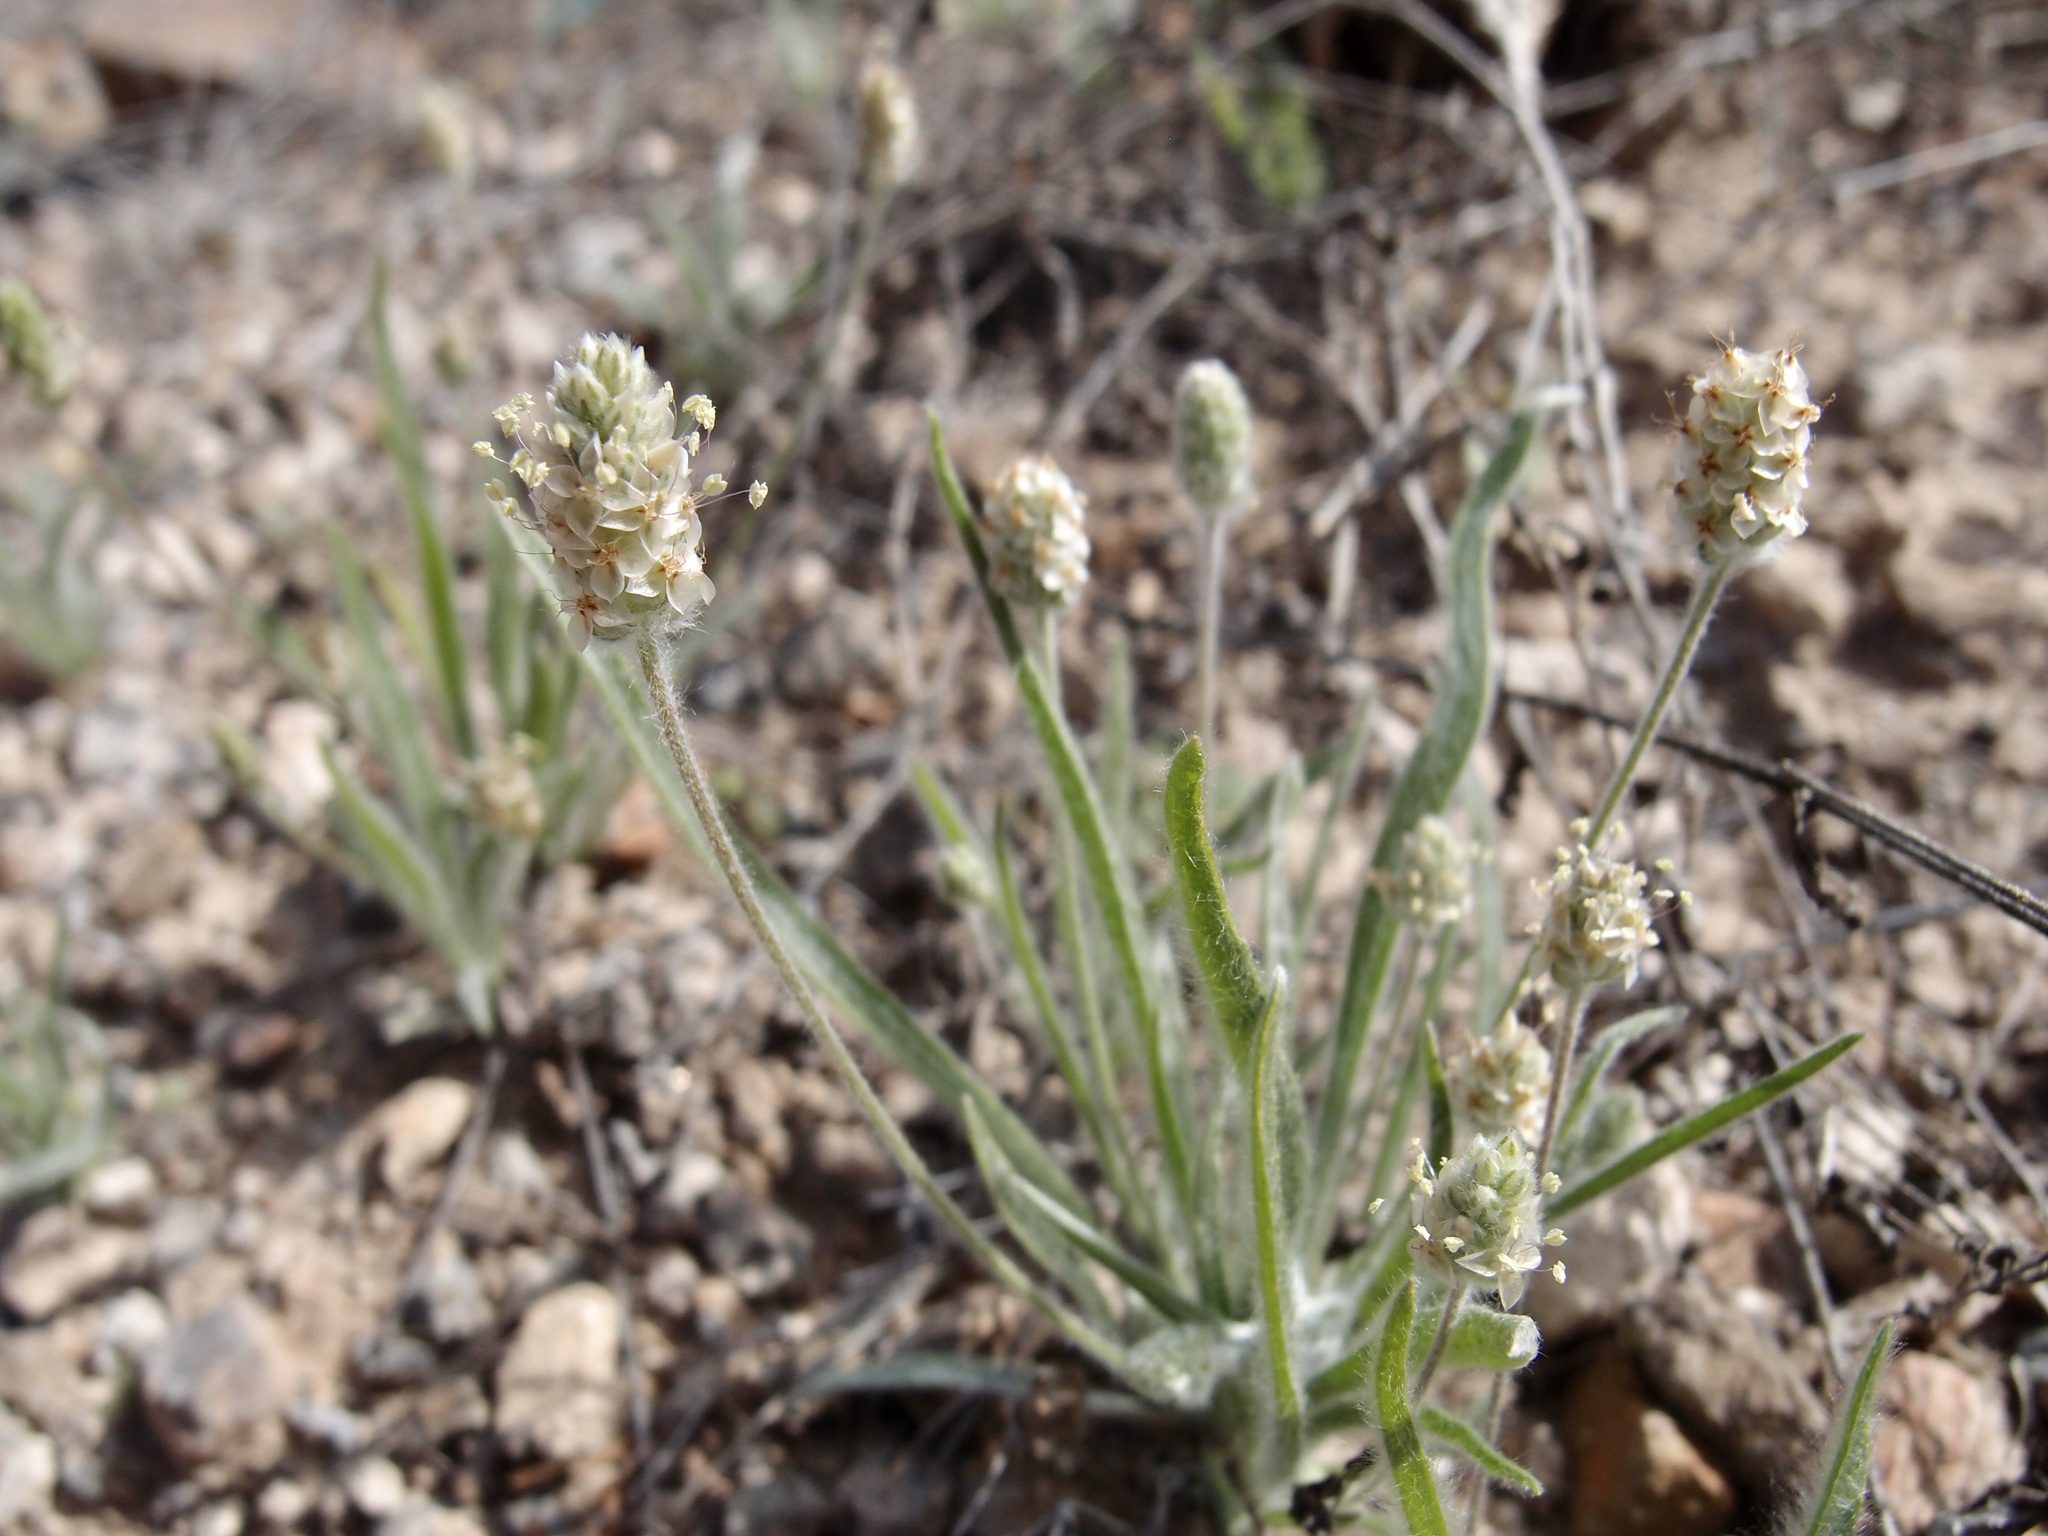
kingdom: Plantae
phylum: Tracheophyta
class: Magnoliopsida
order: Lamiales
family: Plantaginaceae
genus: Plantago
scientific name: Plantago ovata
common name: Blond plantain
